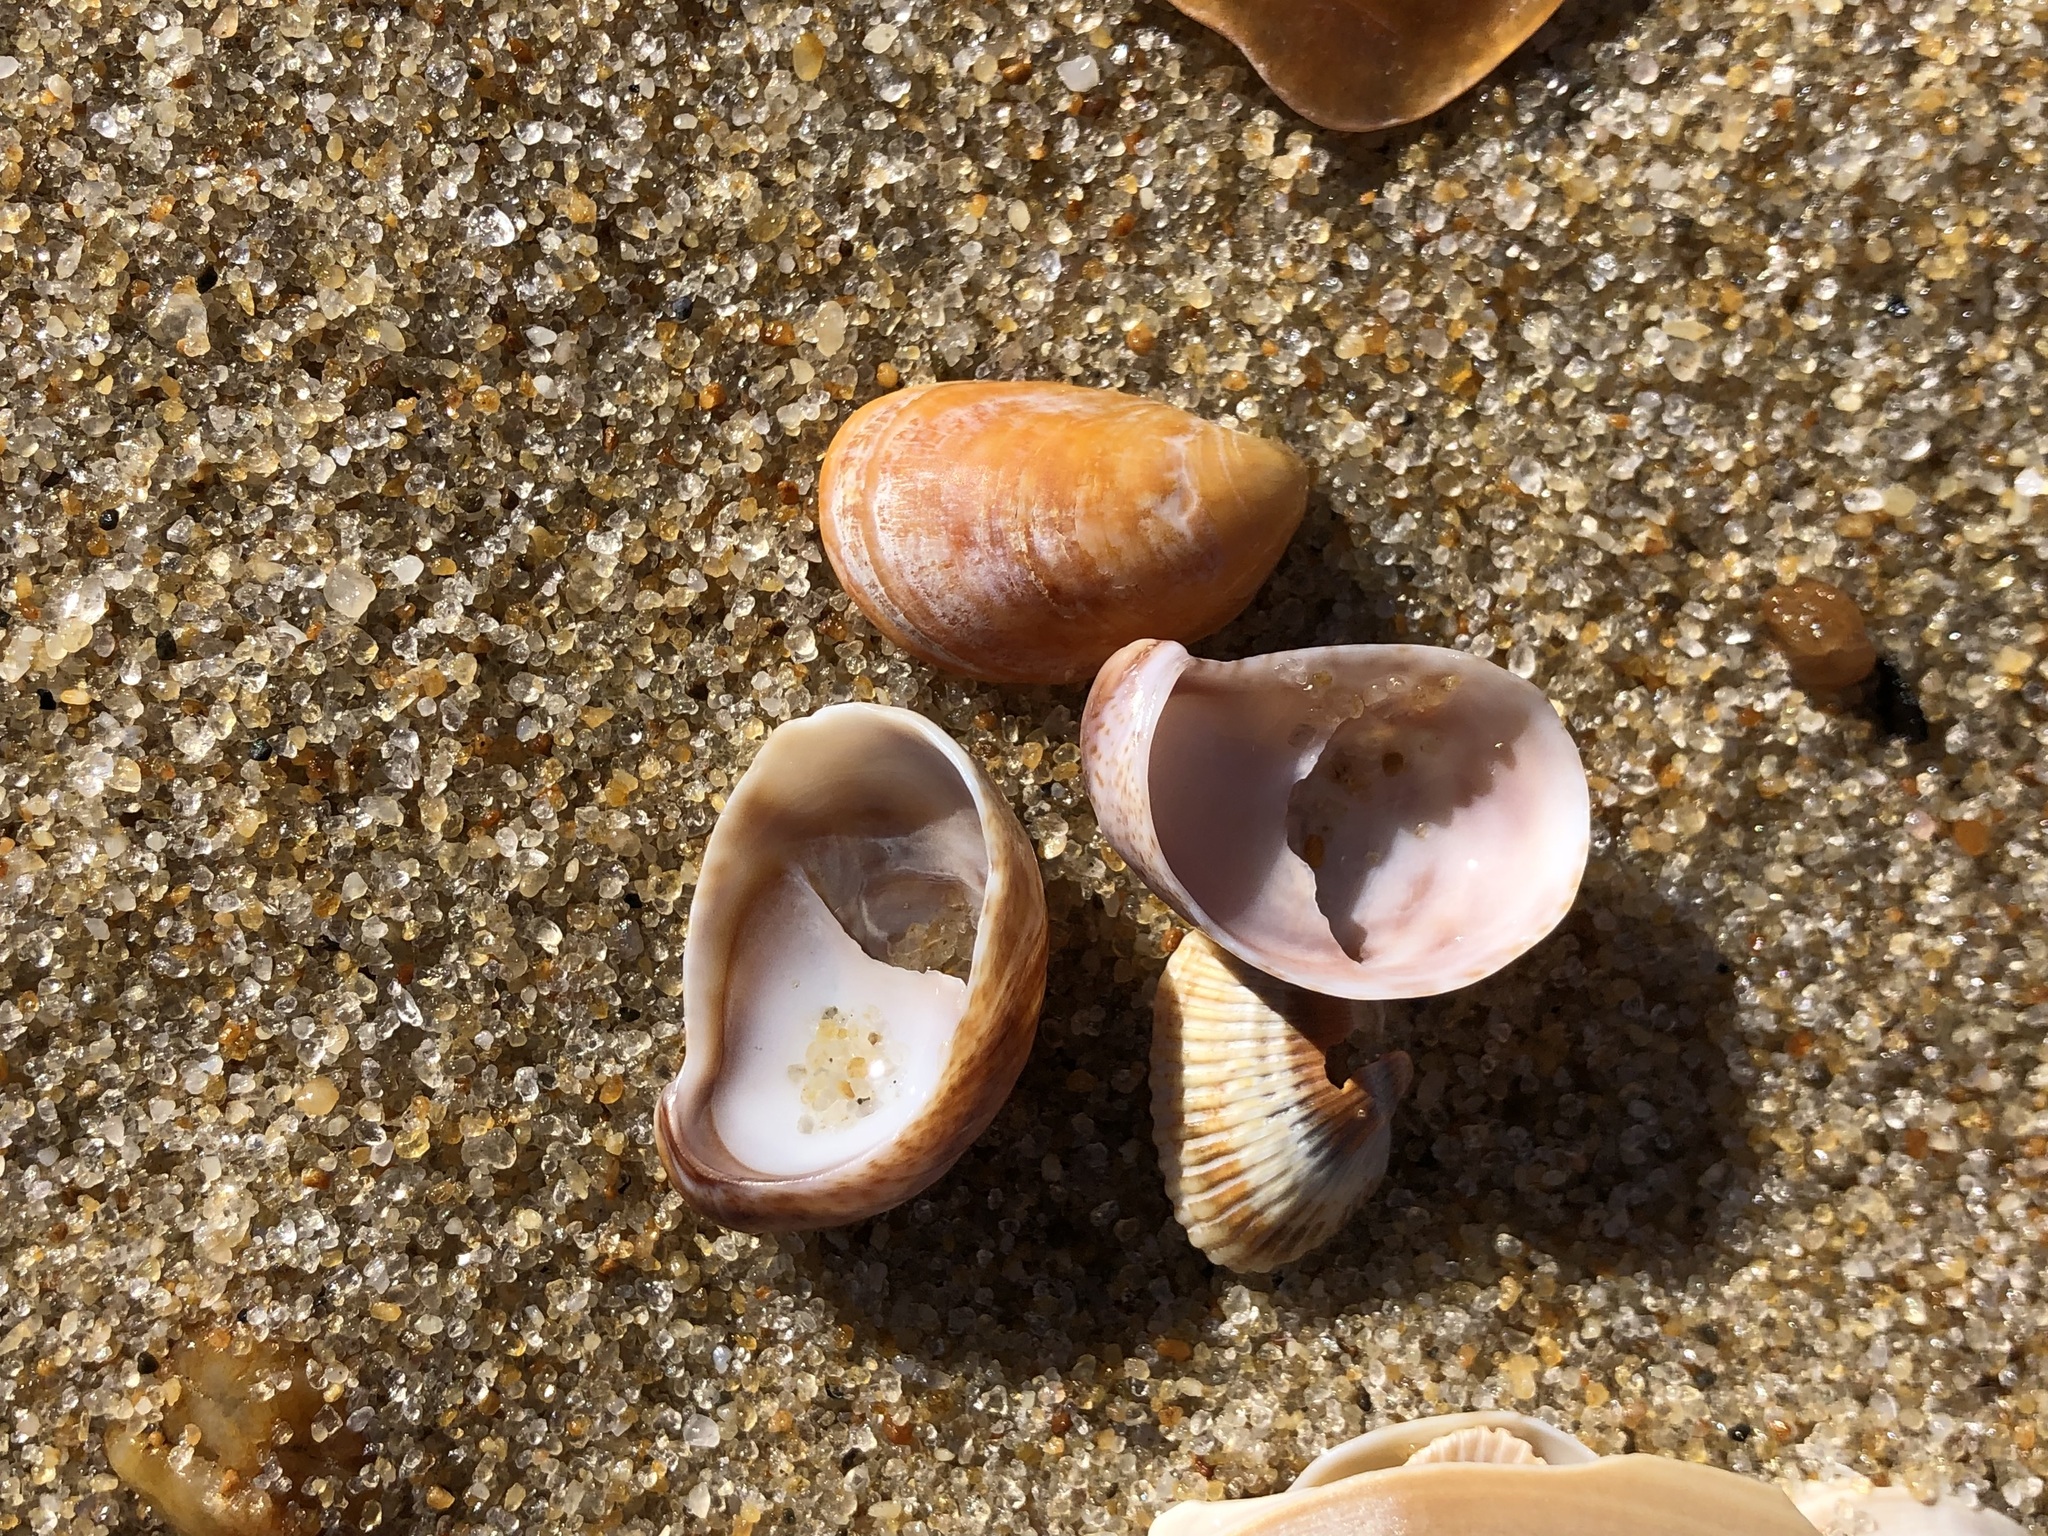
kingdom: Animalia
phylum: Mollusca
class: Gastropoda
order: Littorinimorpha
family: Calyptraeidae
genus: Crepidula
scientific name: Crepidula fornicata
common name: Slipper limpet
